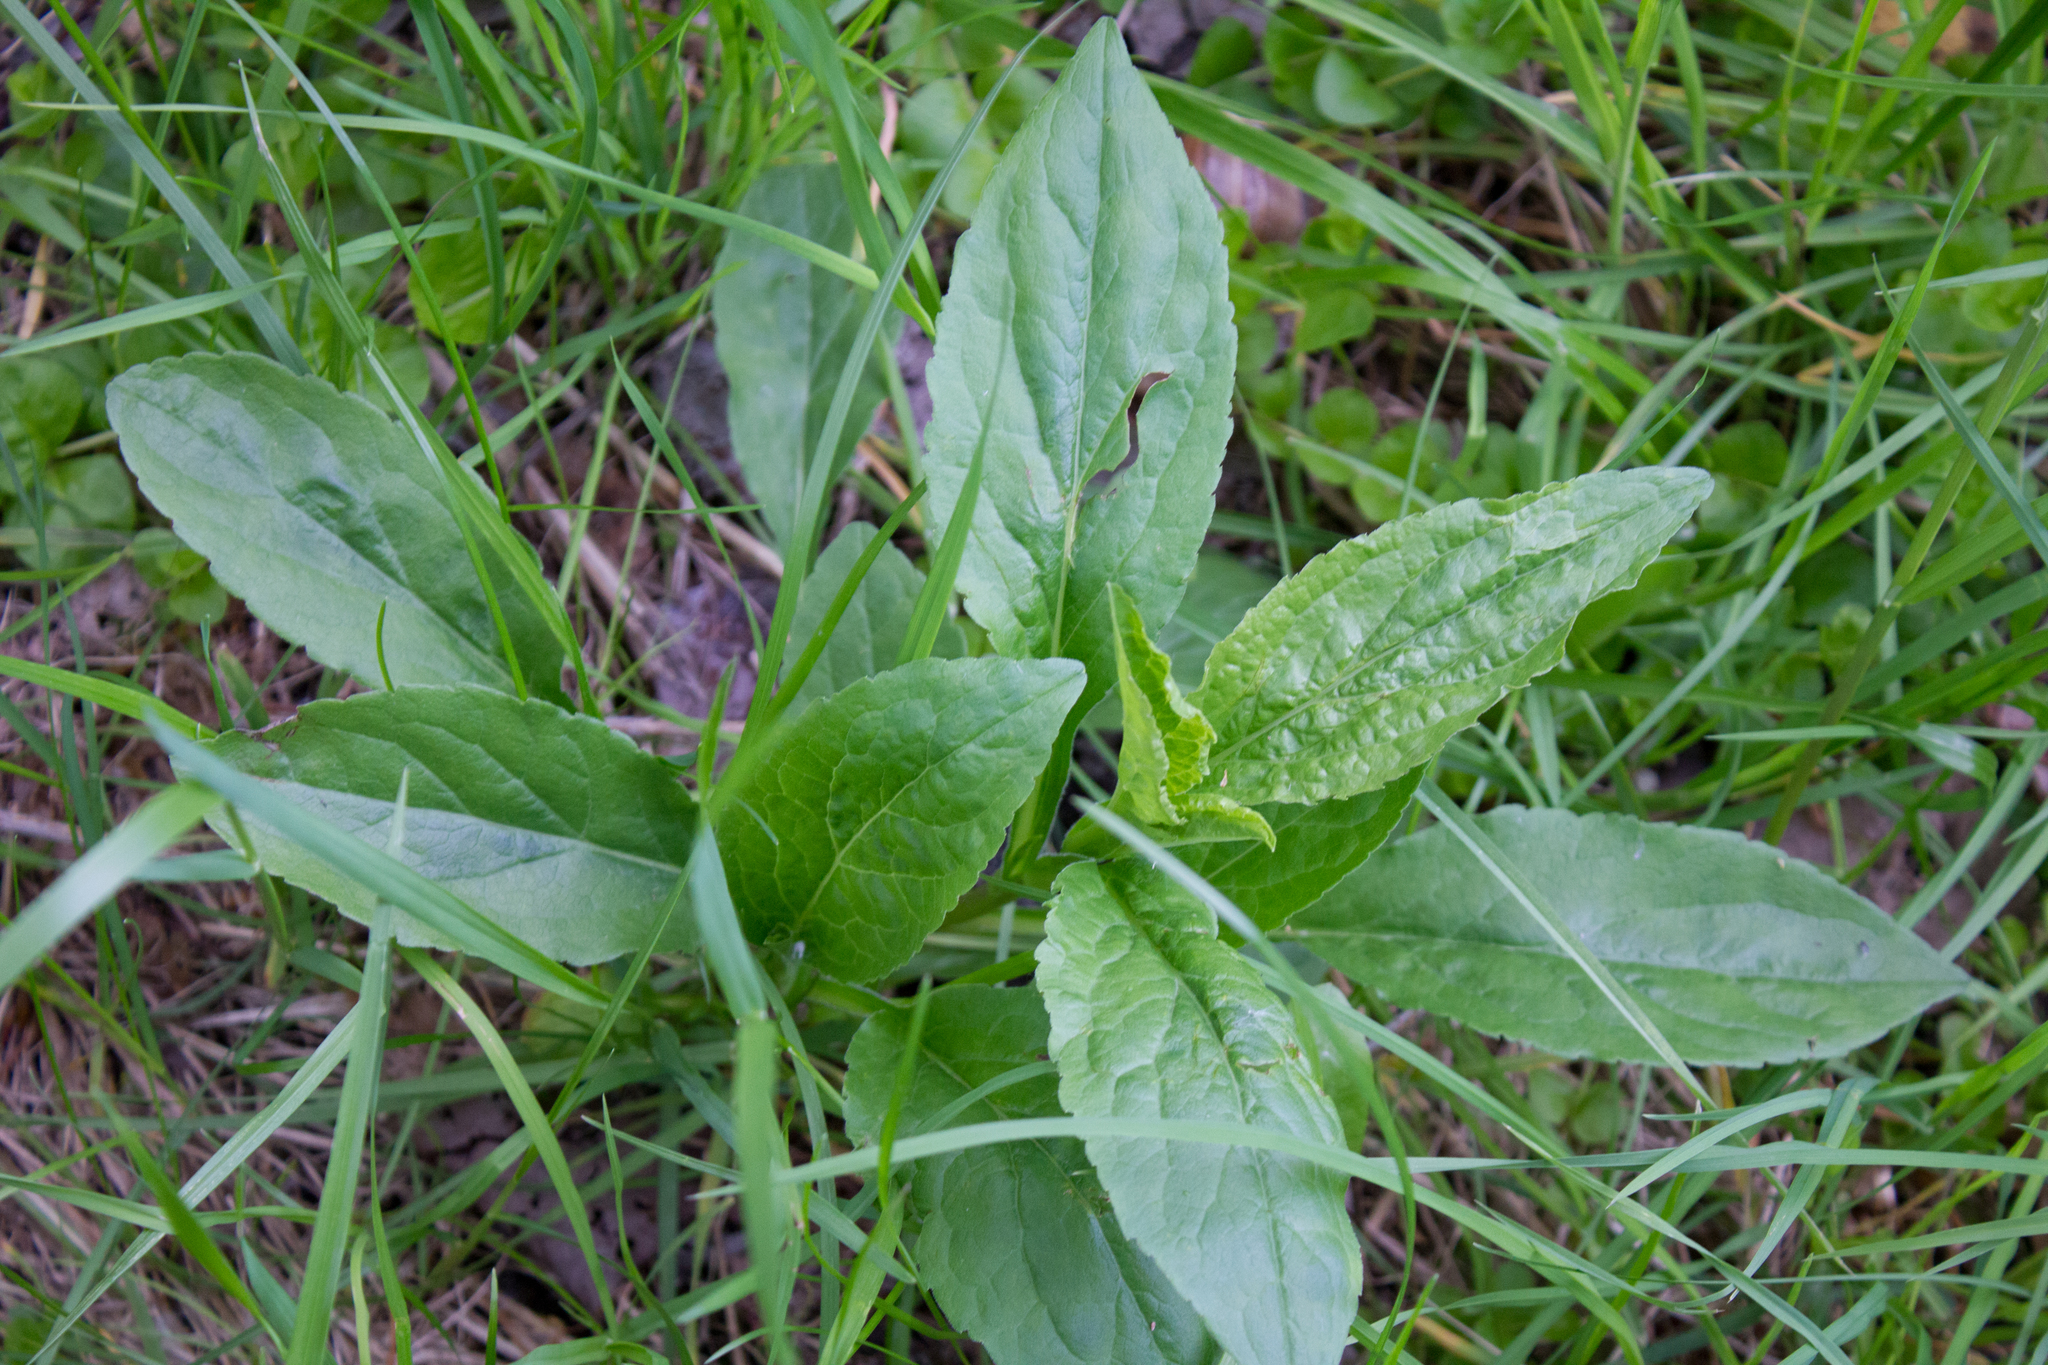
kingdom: Plantae
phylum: Tracheophyta
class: Magnoliopsida
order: Asterales
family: Asteraceae
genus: Solidago
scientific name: Solidago virgaurea
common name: Goldenrod
